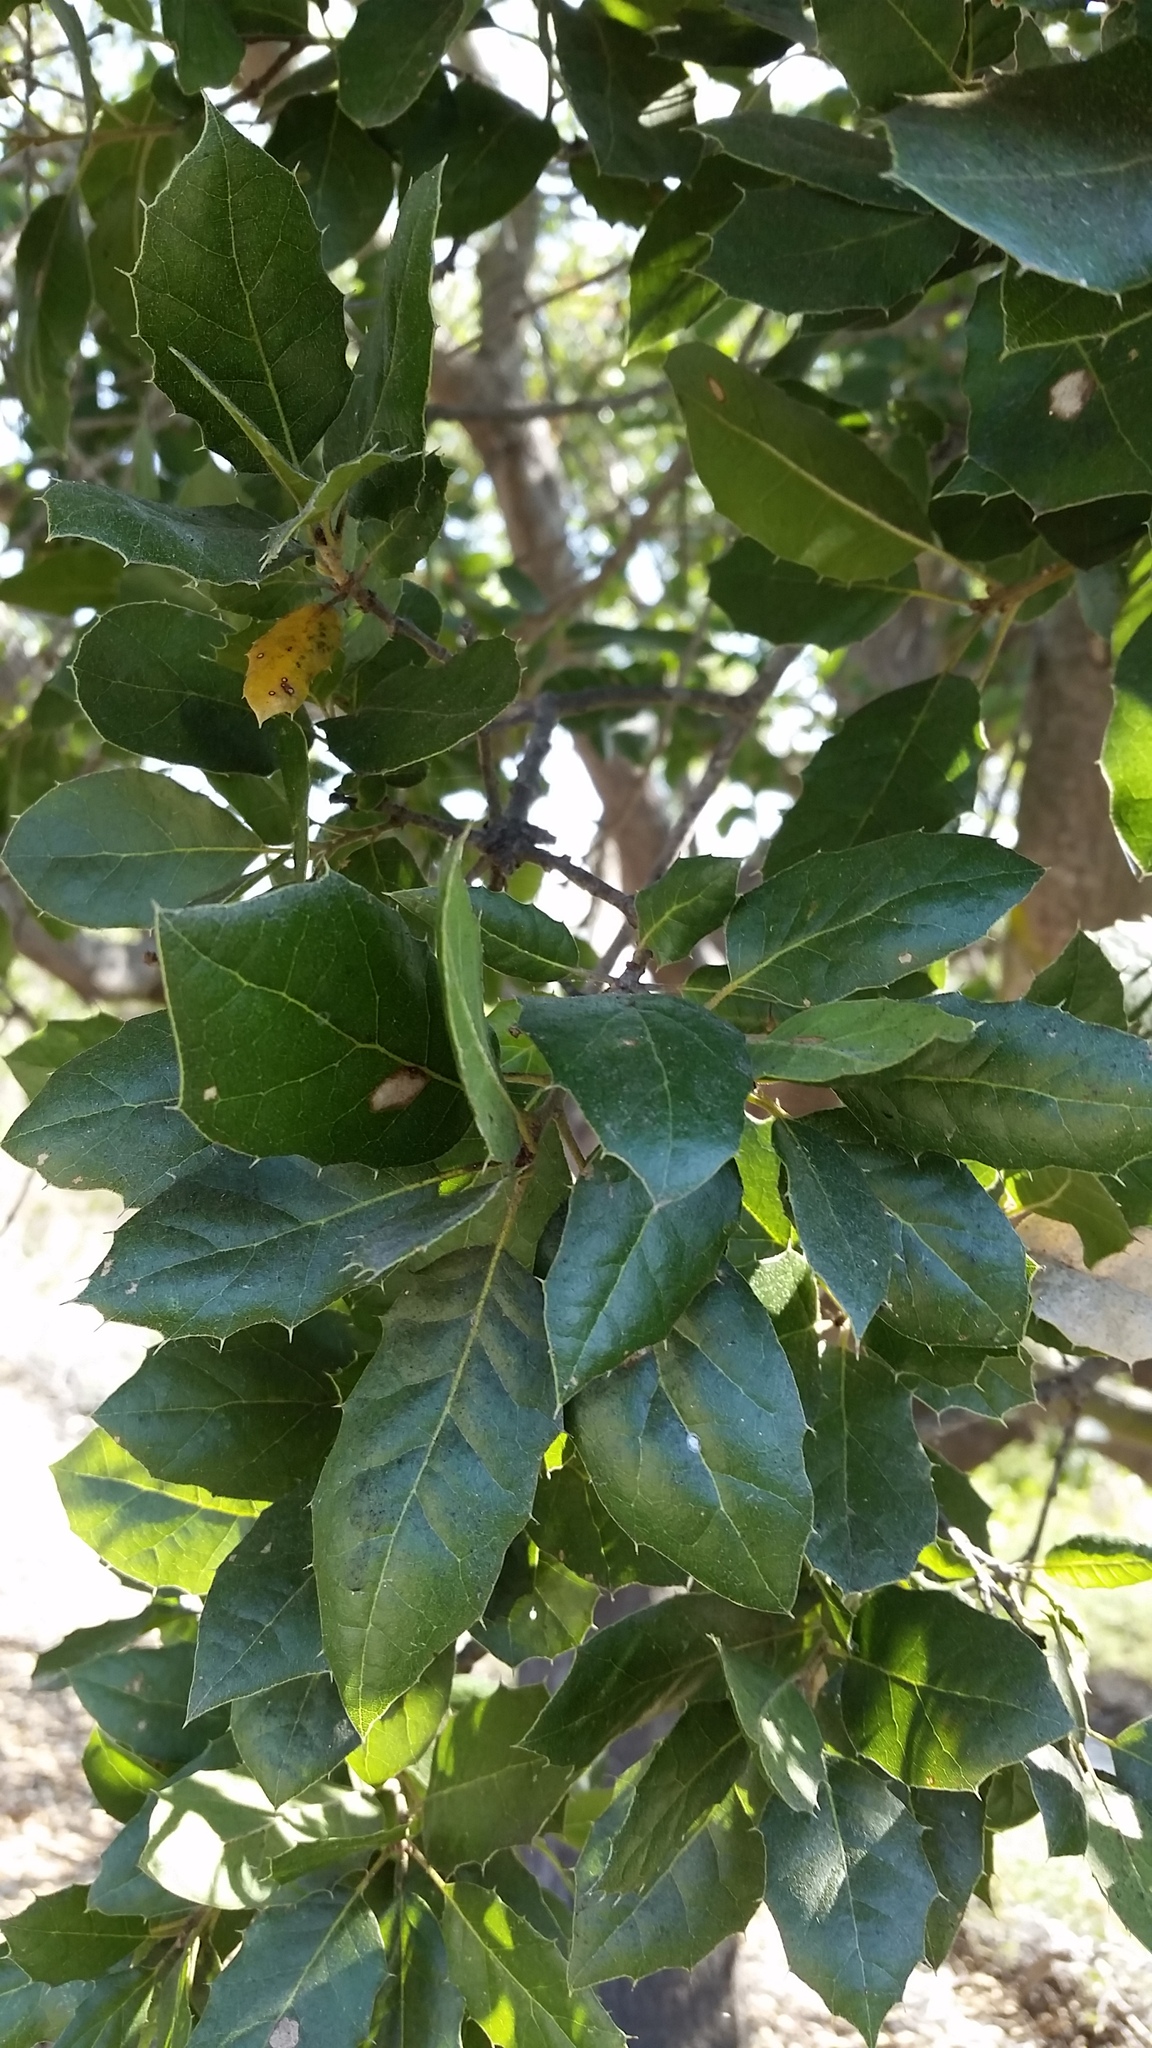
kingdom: Plantae
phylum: Tracheophyta
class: Magnoliopsida
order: Fagales
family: Fagaceae
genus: Quercus
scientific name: Quercus agrifolia
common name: California live oak
